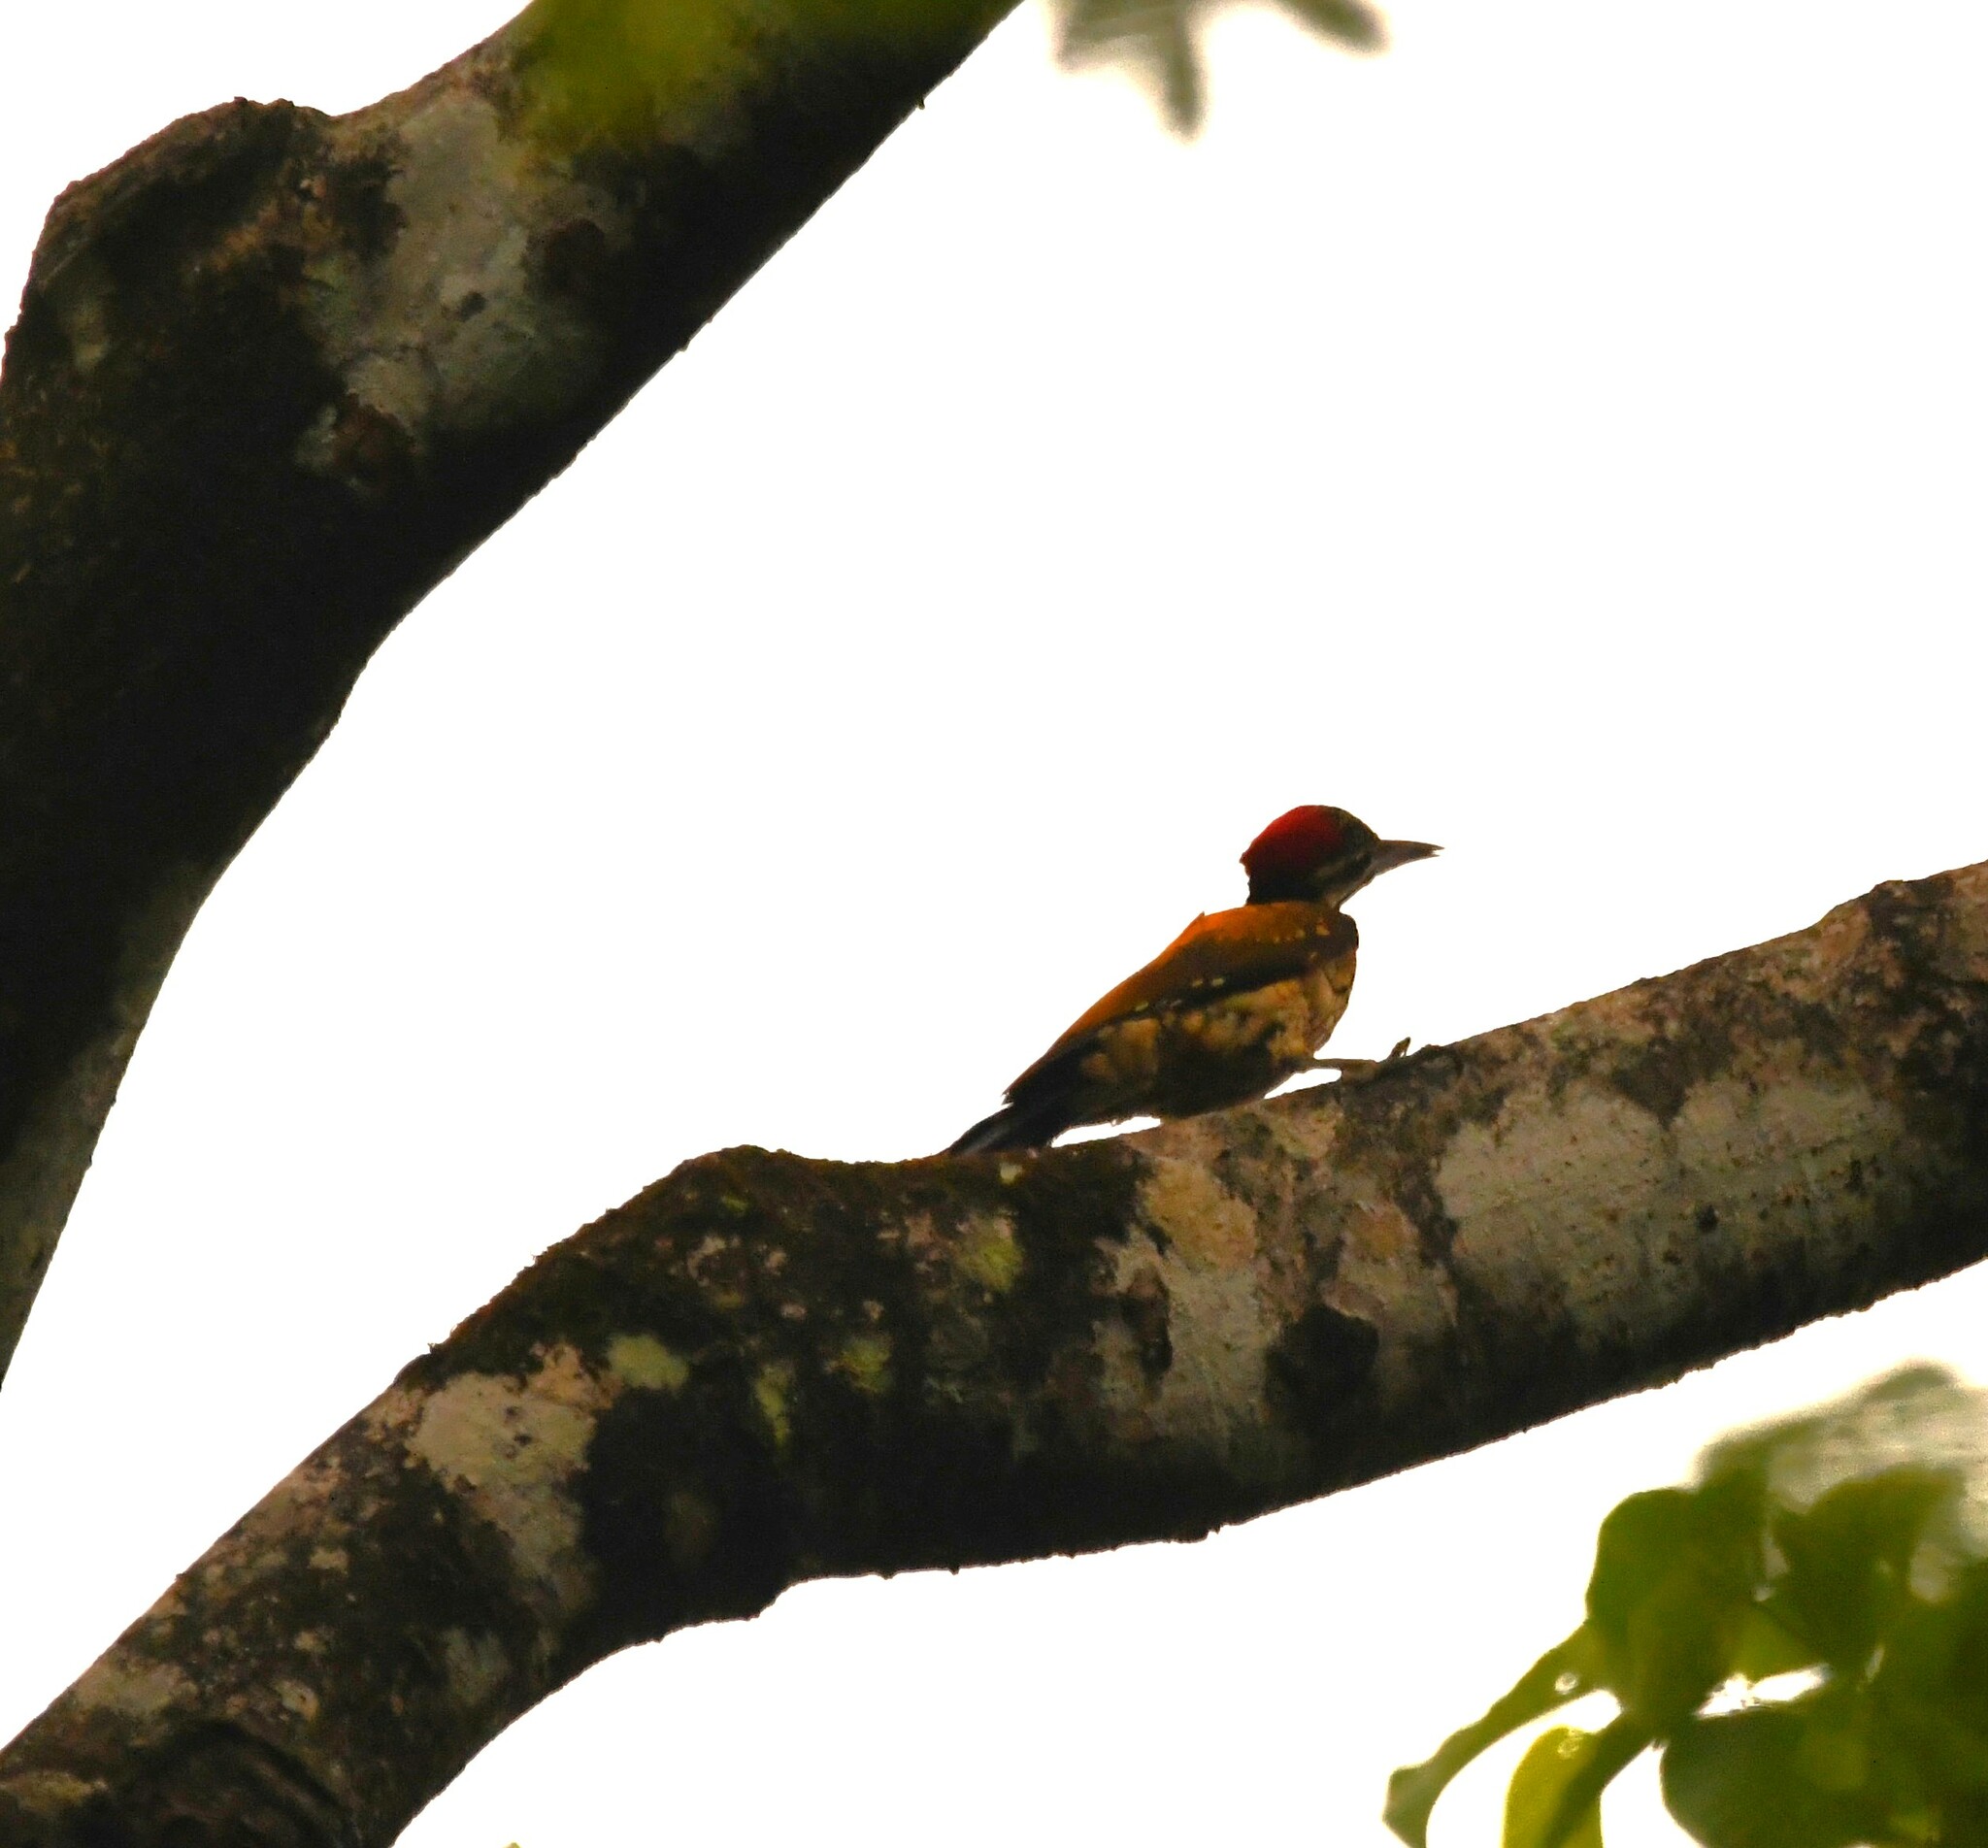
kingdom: Animalia
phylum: Chordata
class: Aves
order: Piciformes
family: Picidae
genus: Dinopium
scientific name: Dinopium benghalense
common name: Black-rumped flameback
